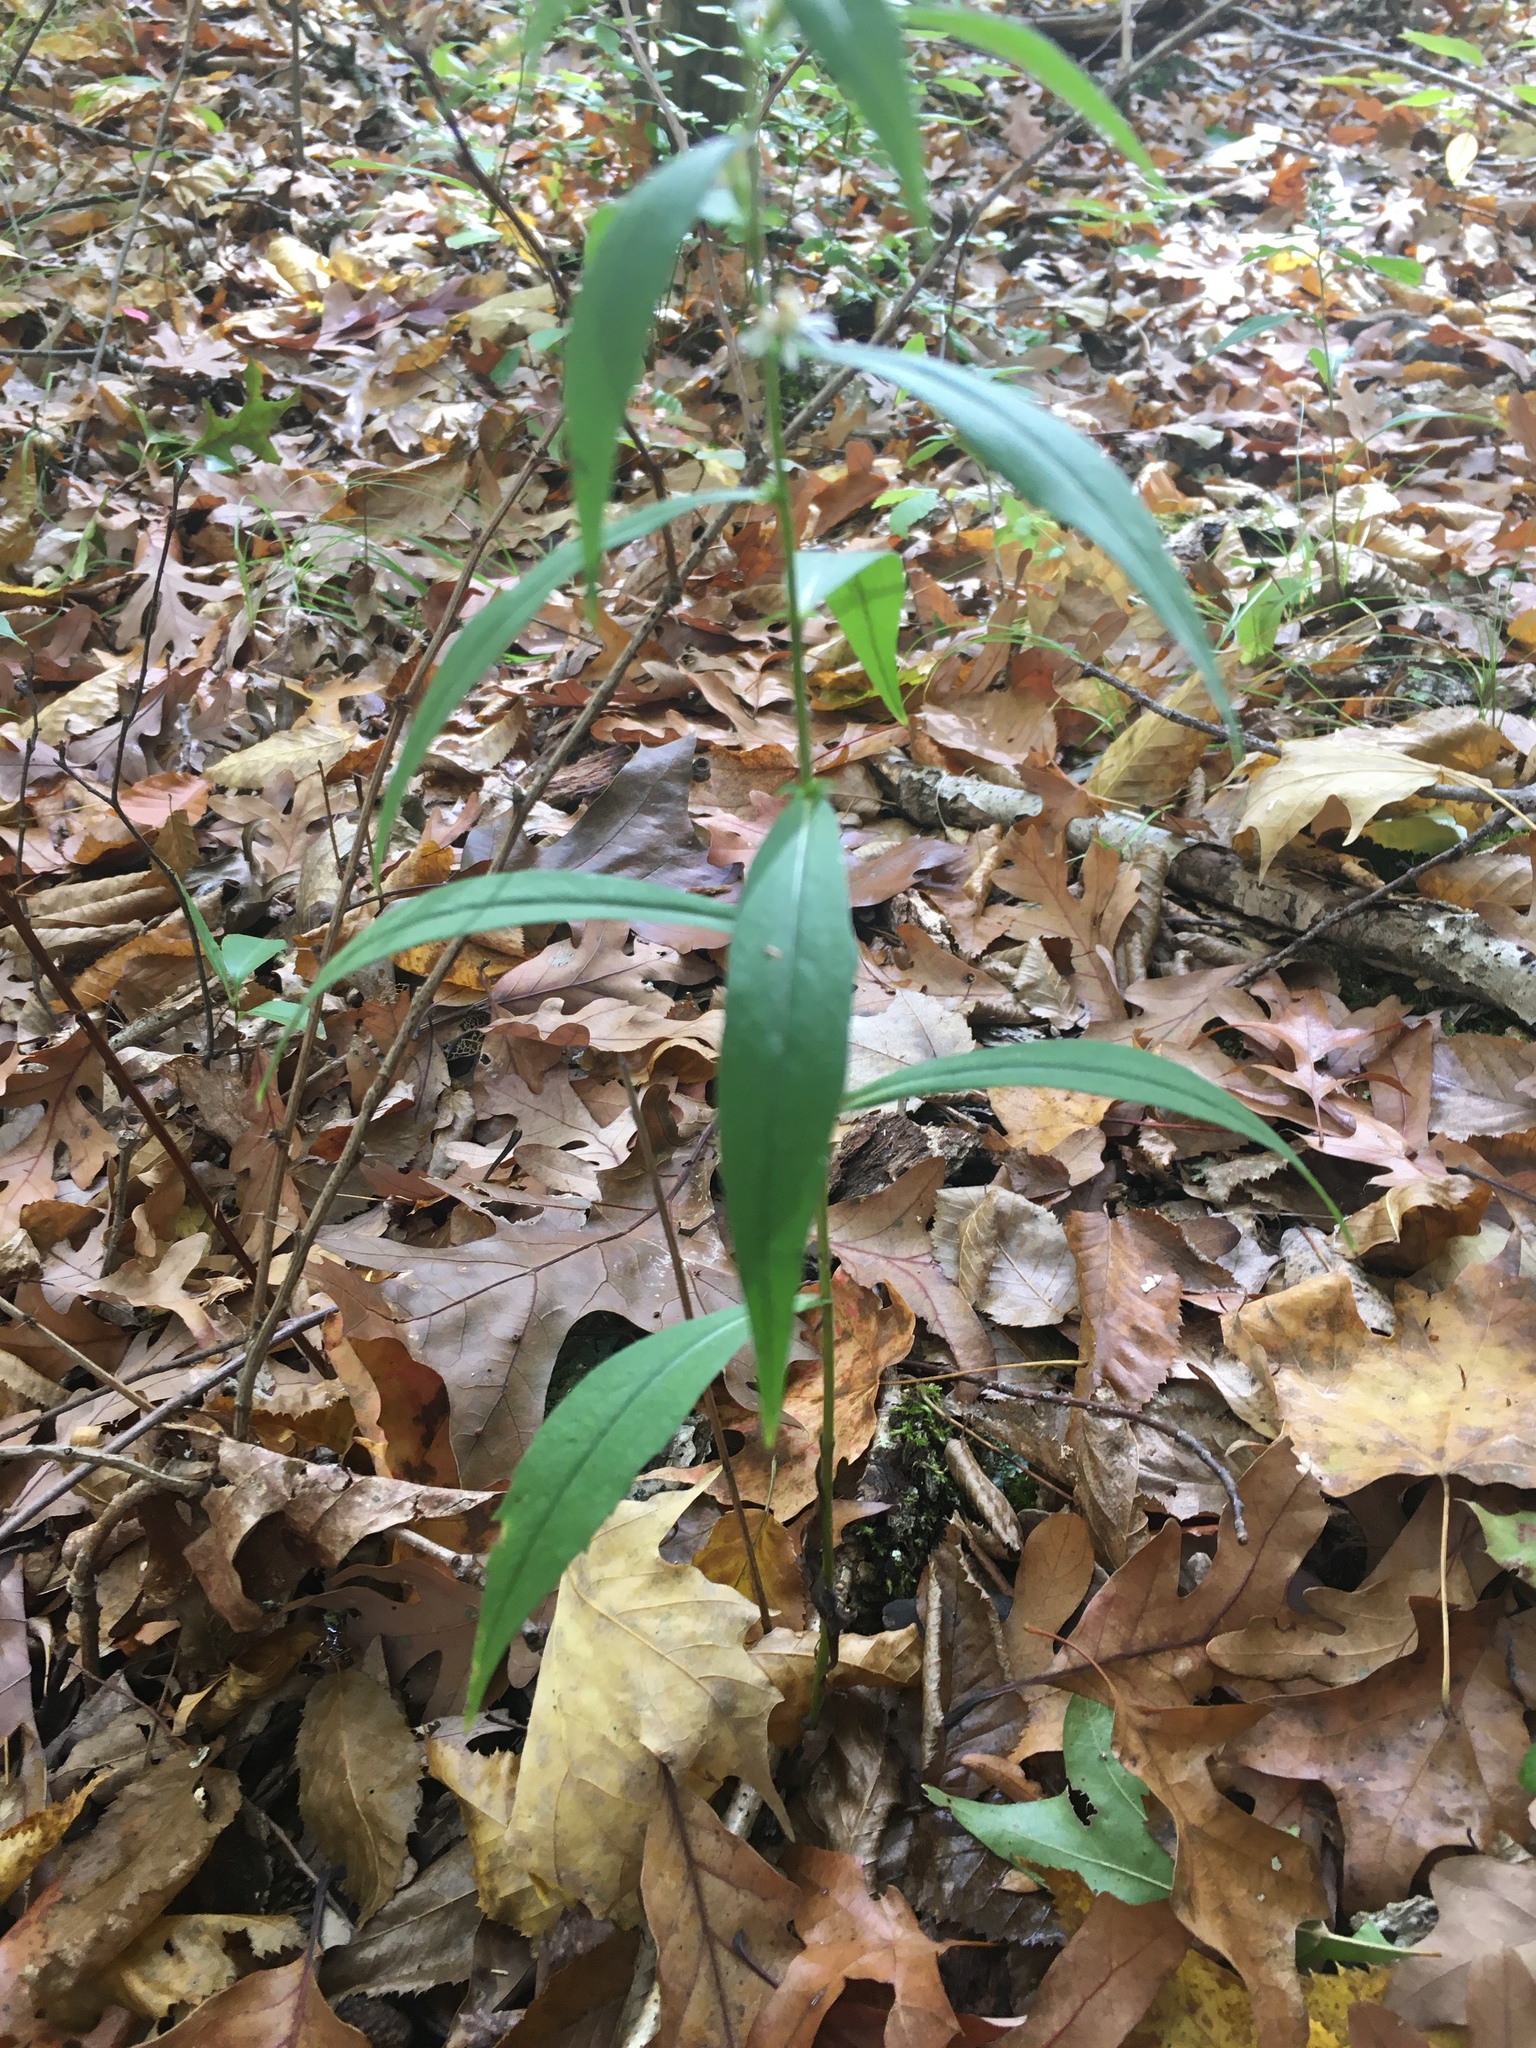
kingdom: Plantae
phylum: Tracheophyta
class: Magnoliopsida
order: Asterales
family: Asteraceae
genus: Symphyotrichum
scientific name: Symphyotrichum lateriflorum
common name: Calico aster
